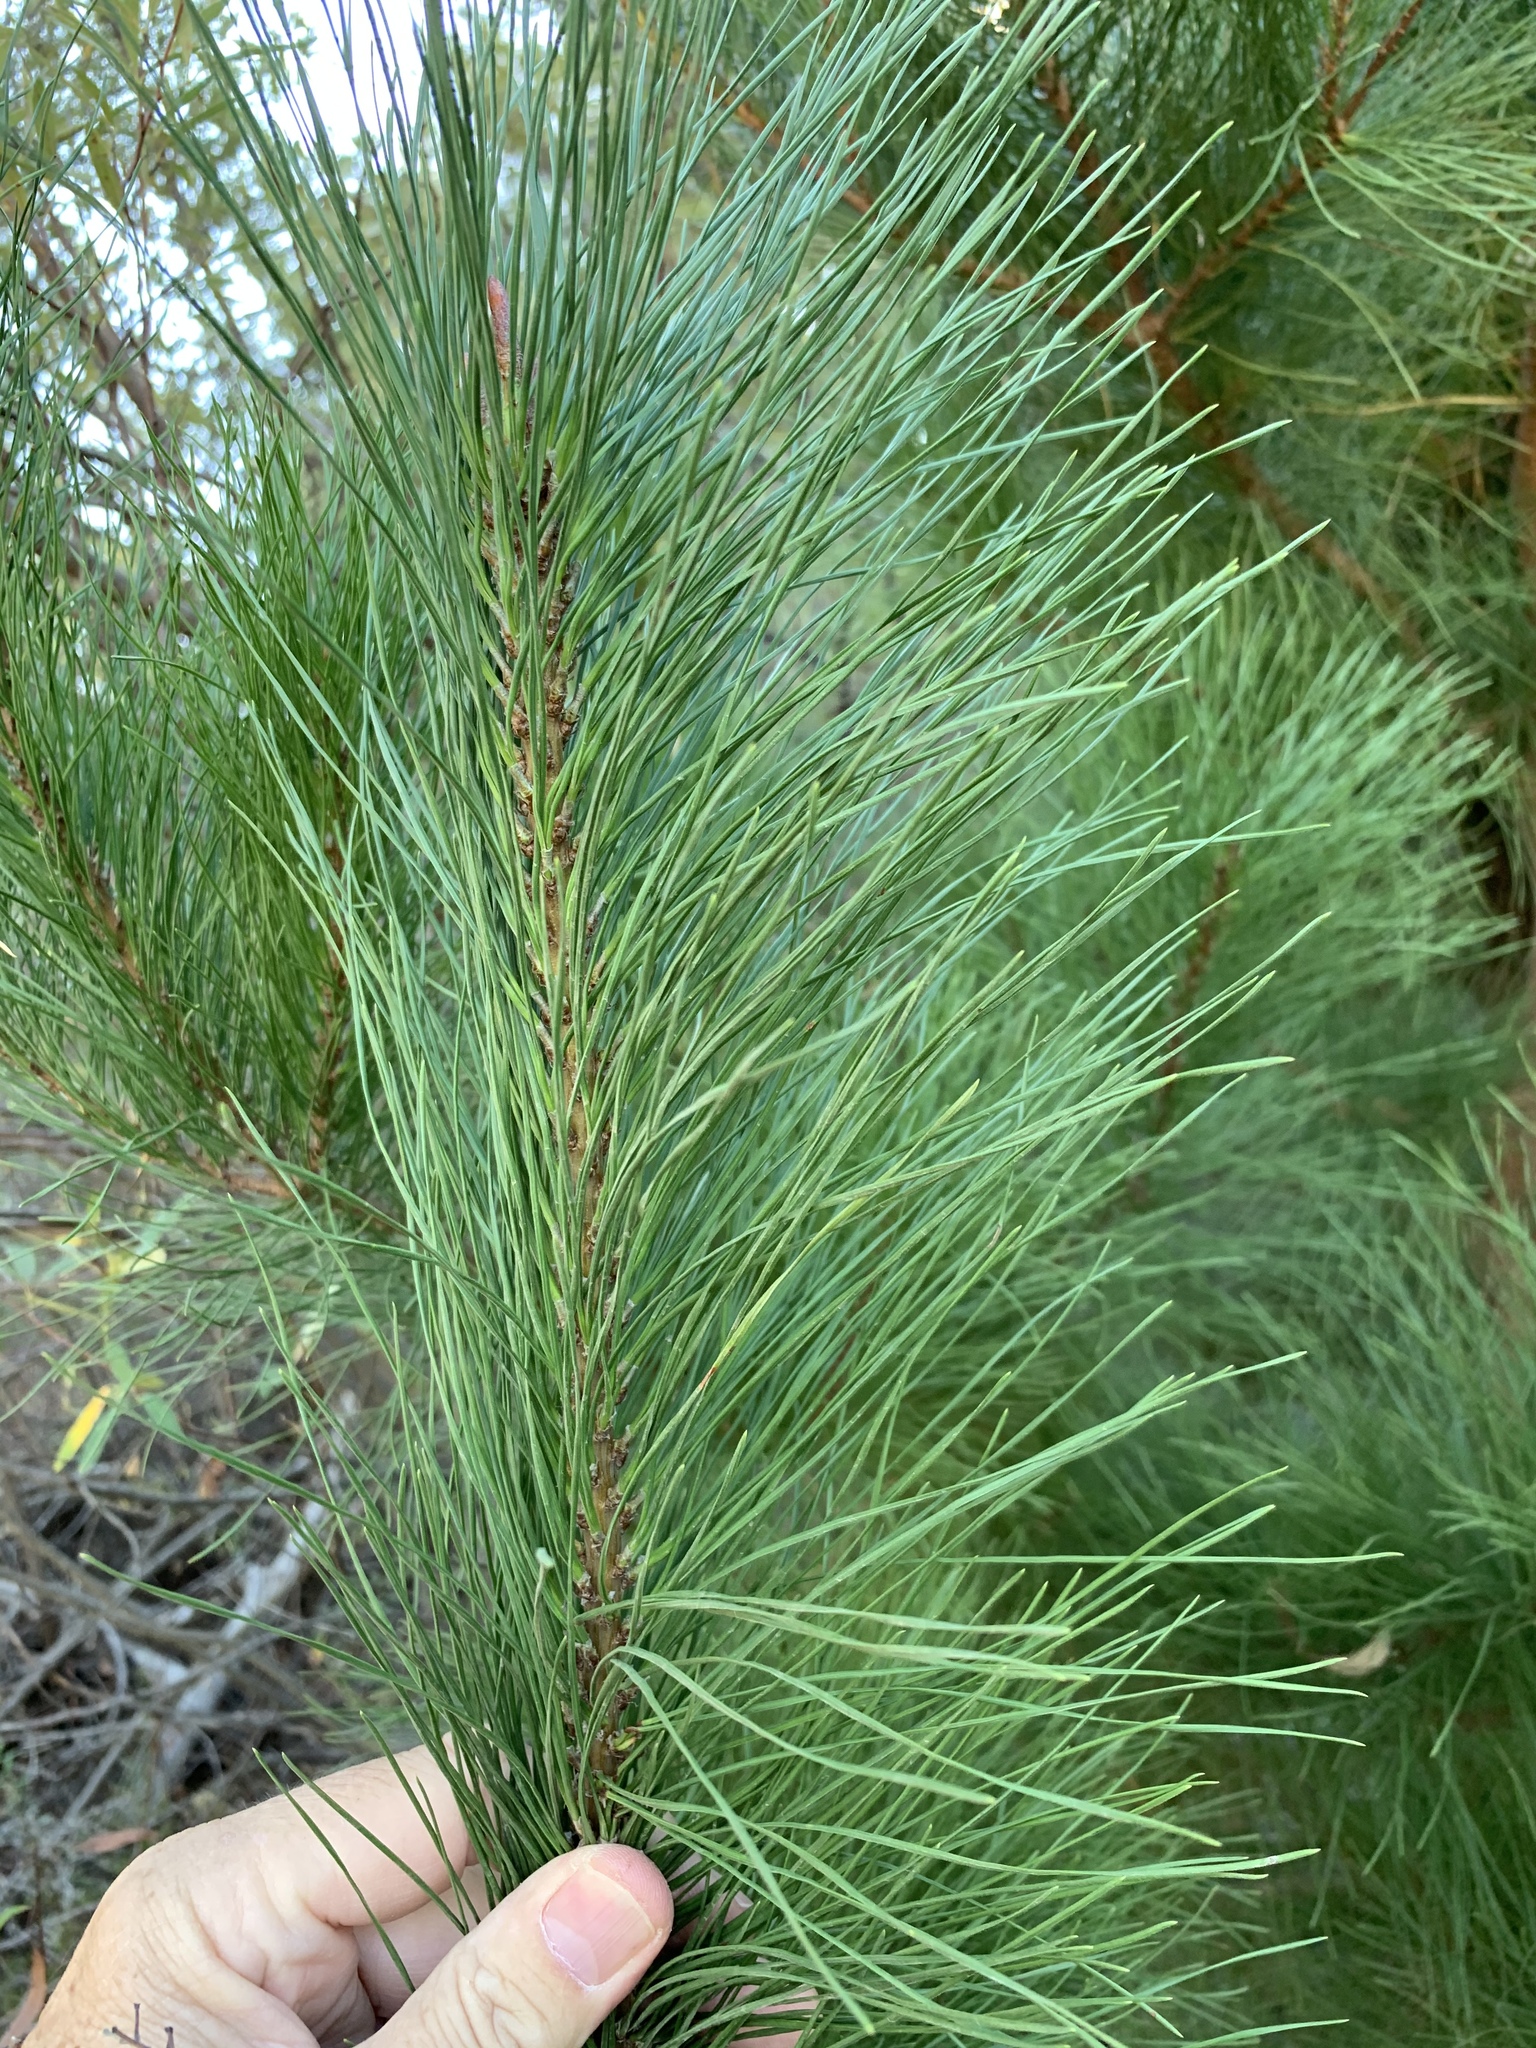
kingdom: Plantae
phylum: Tracheophyta
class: Pinopsida
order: Pinales
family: Pinaceae
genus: Pinus
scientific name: Pinus radiata
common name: Monterey pine
